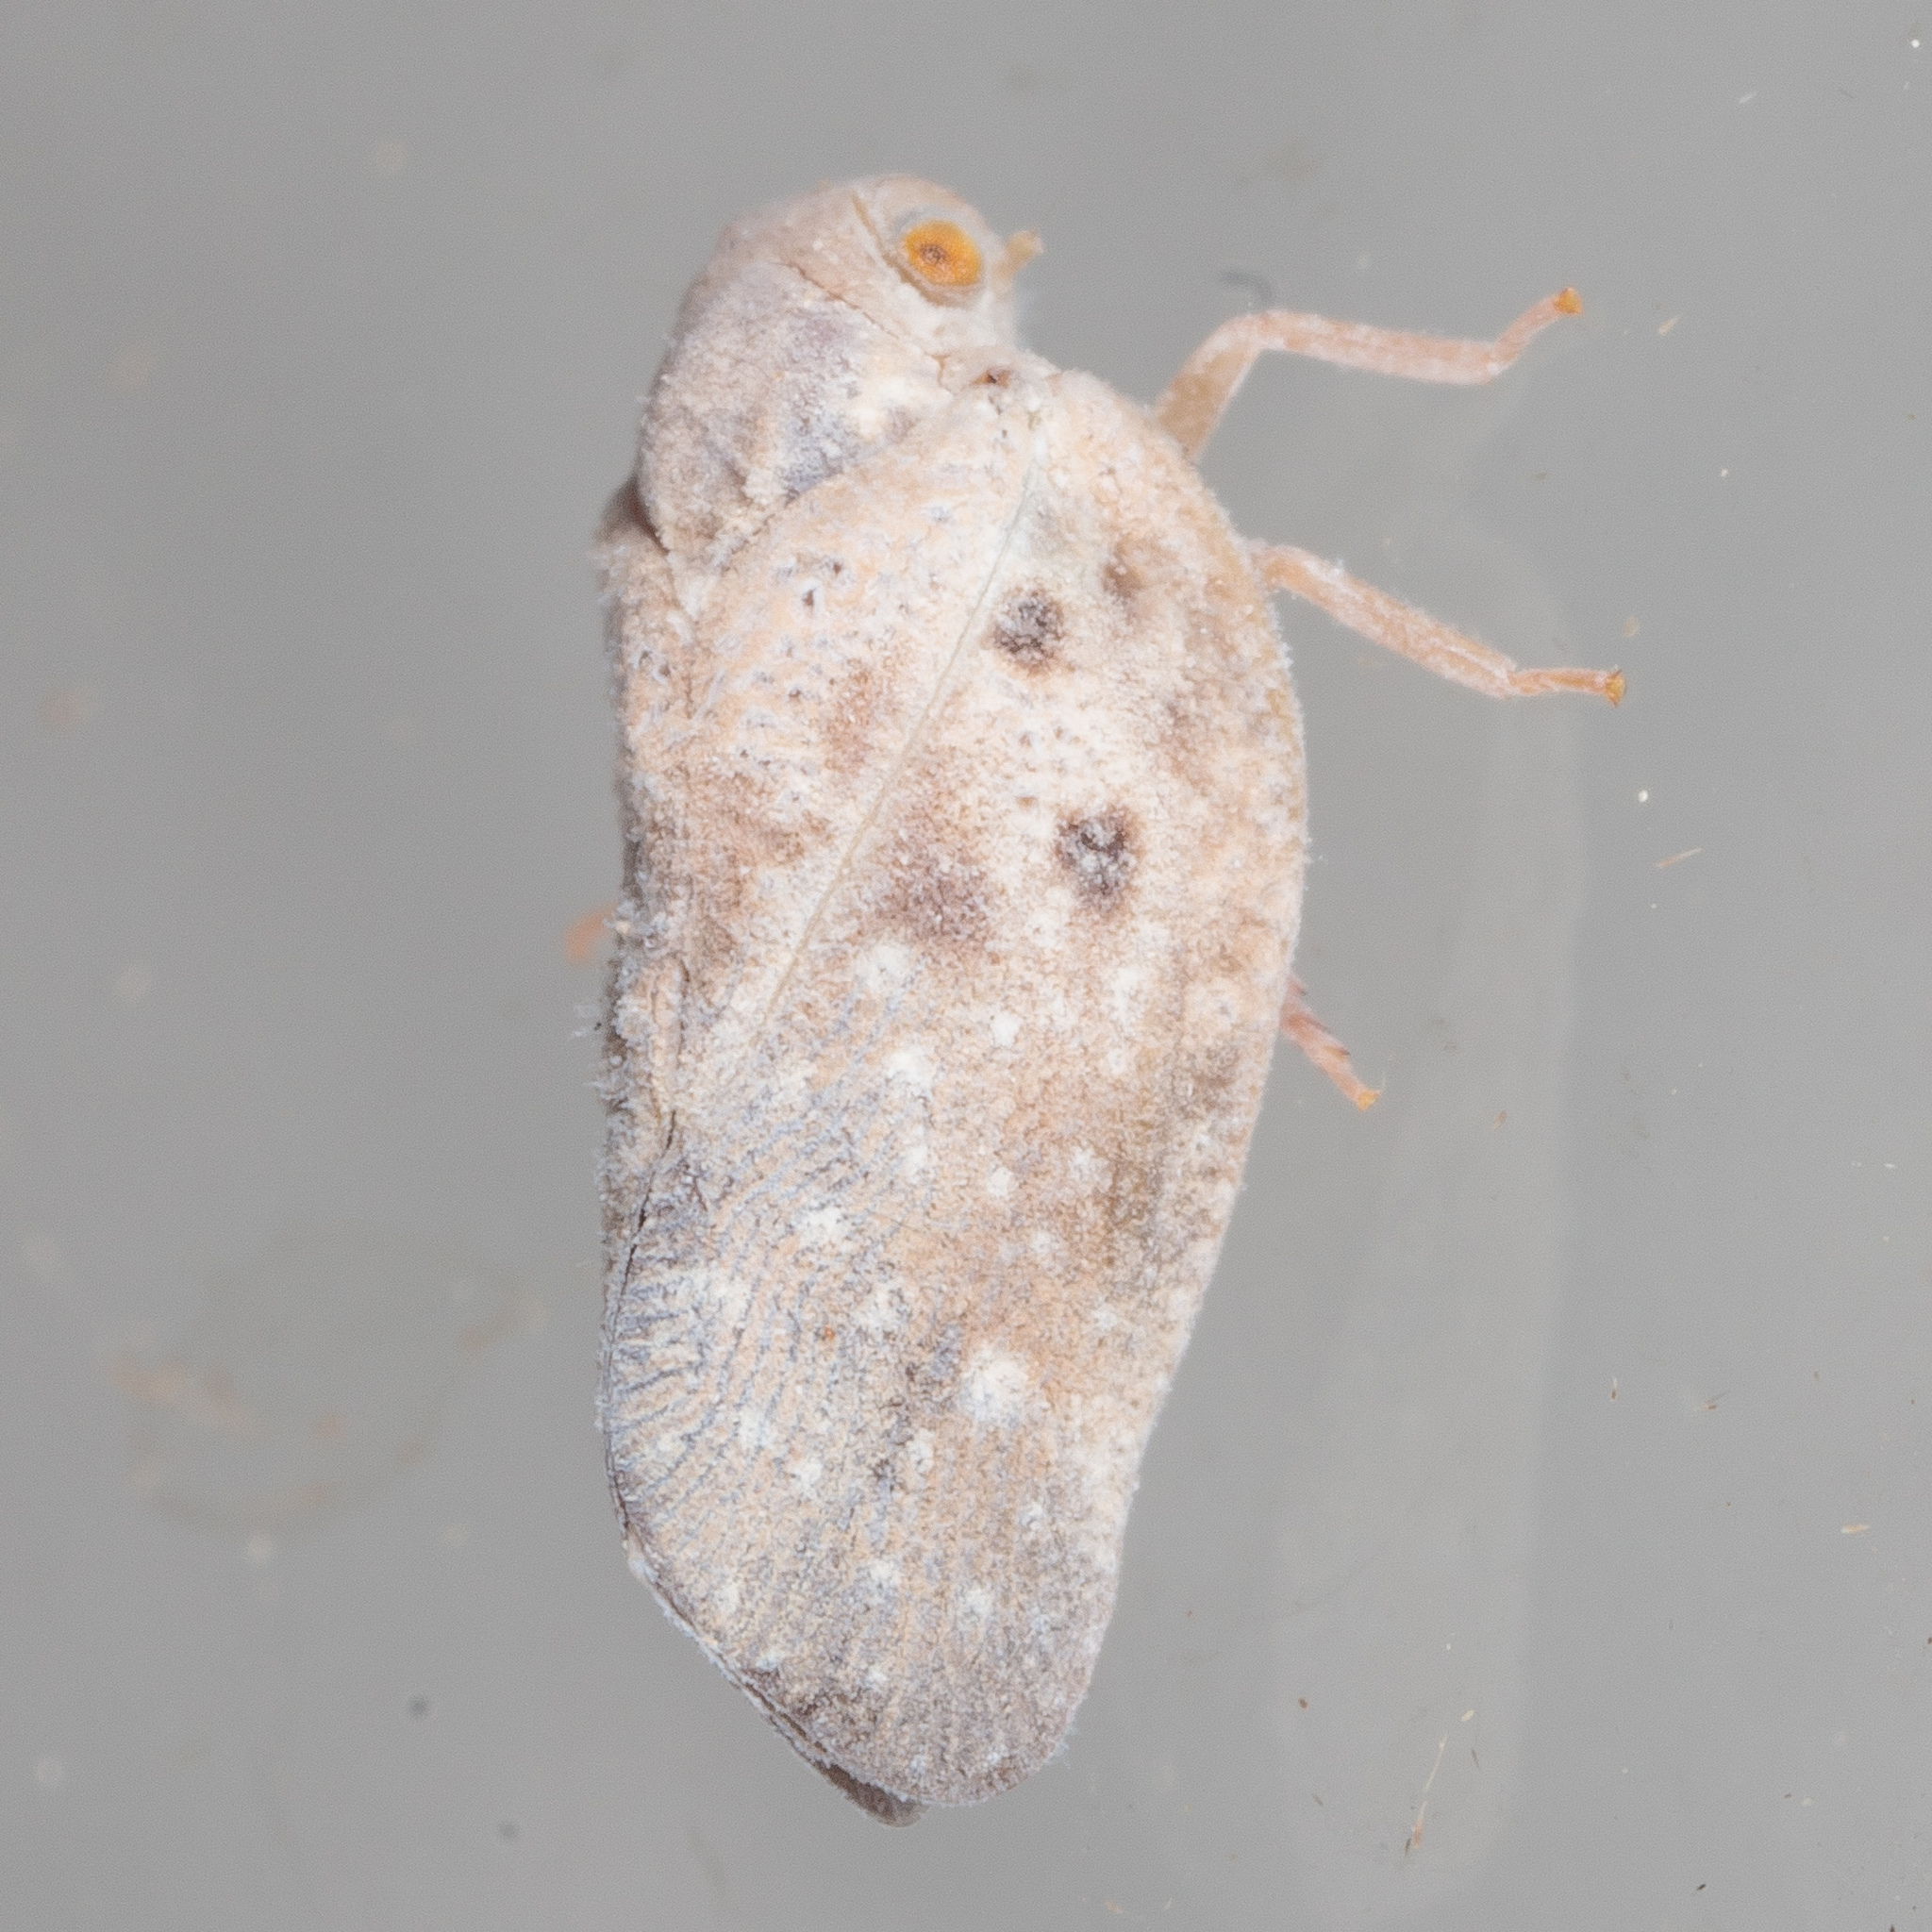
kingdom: Animalia
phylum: Arthropoda
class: Insecta
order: Hemiptera
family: Flatidae
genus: Metcalfa
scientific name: Metcalfa pruinosa
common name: Citrus flatid planthopper
